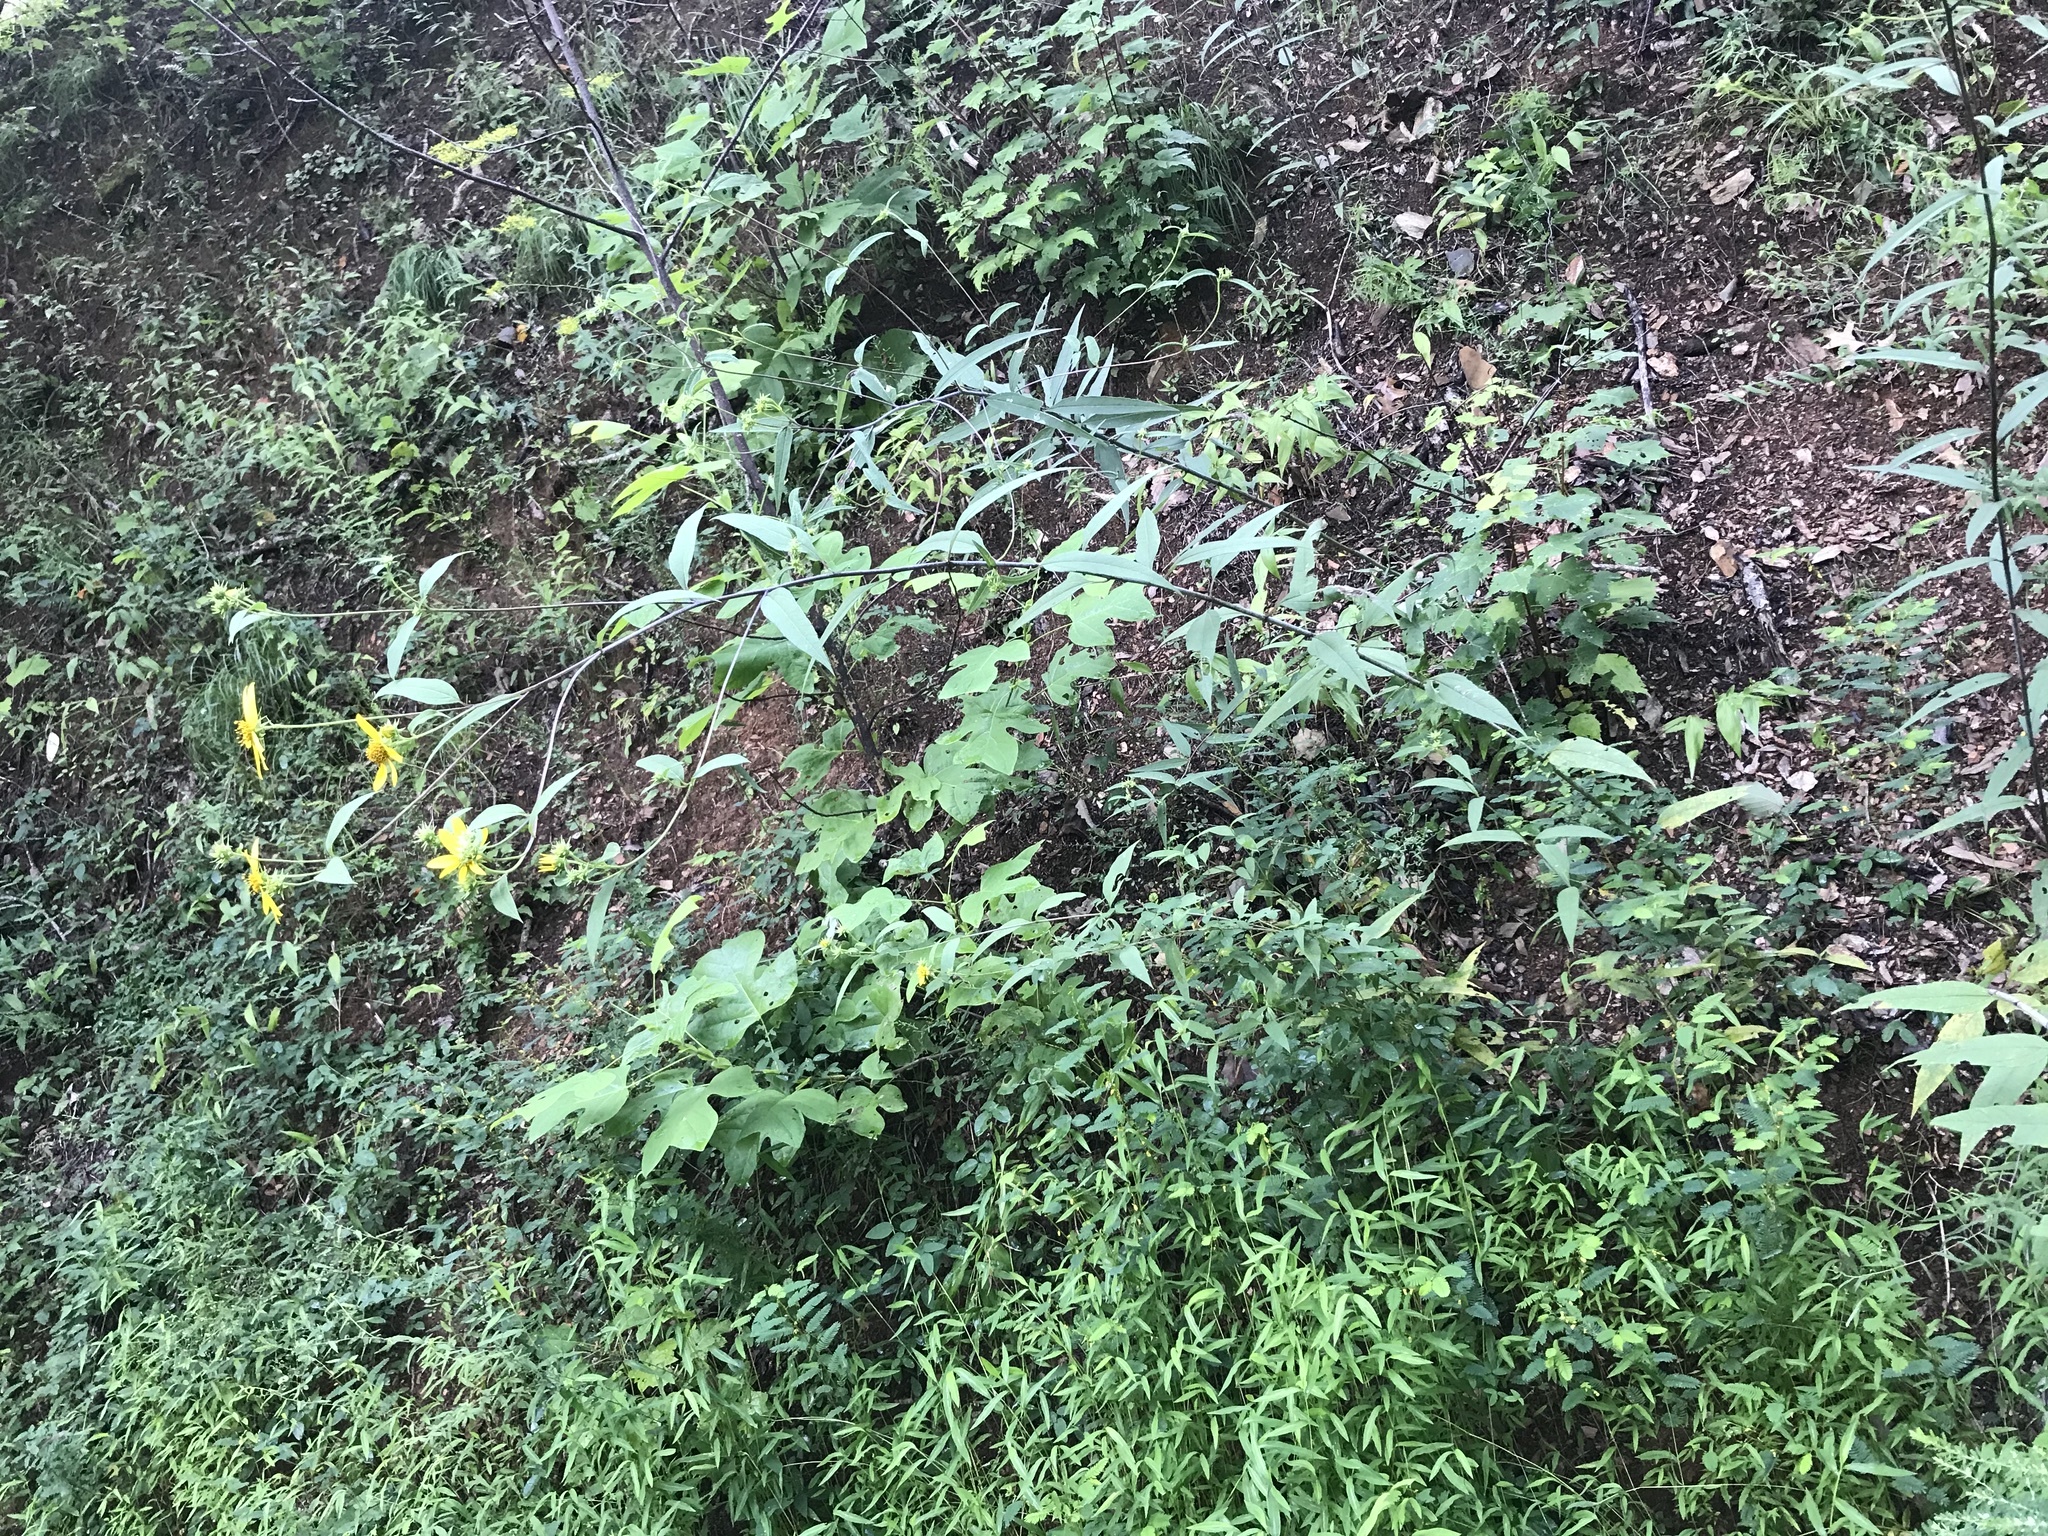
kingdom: Plantae
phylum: Tracheophyta
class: Magnoliopsida
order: Asterales
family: Asteraceae
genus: Helianthus
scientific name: Helianthus microcephalus
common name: Woodland sunflower
